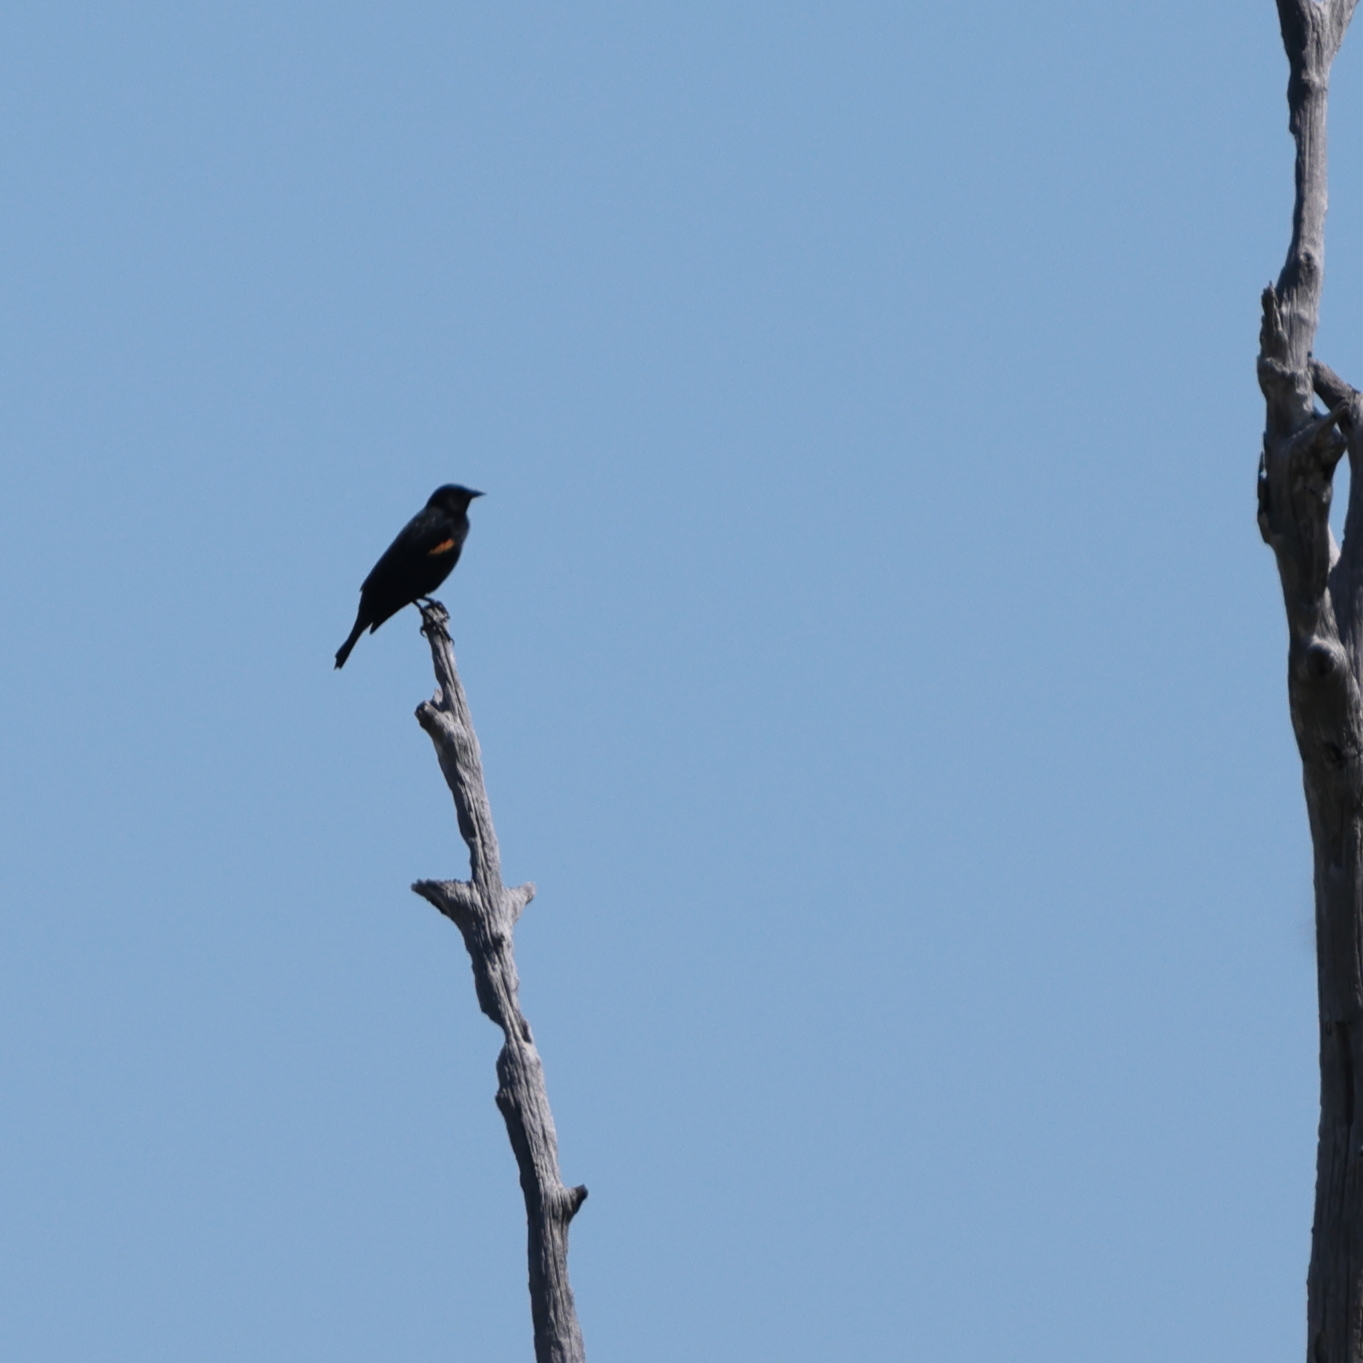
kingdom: Animalia
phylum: Chordata
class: Aves
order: Passeriformes
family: Icteridae
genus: Agelaius
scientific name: Agelaius phoeniceus
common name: Red-winged blackbird
